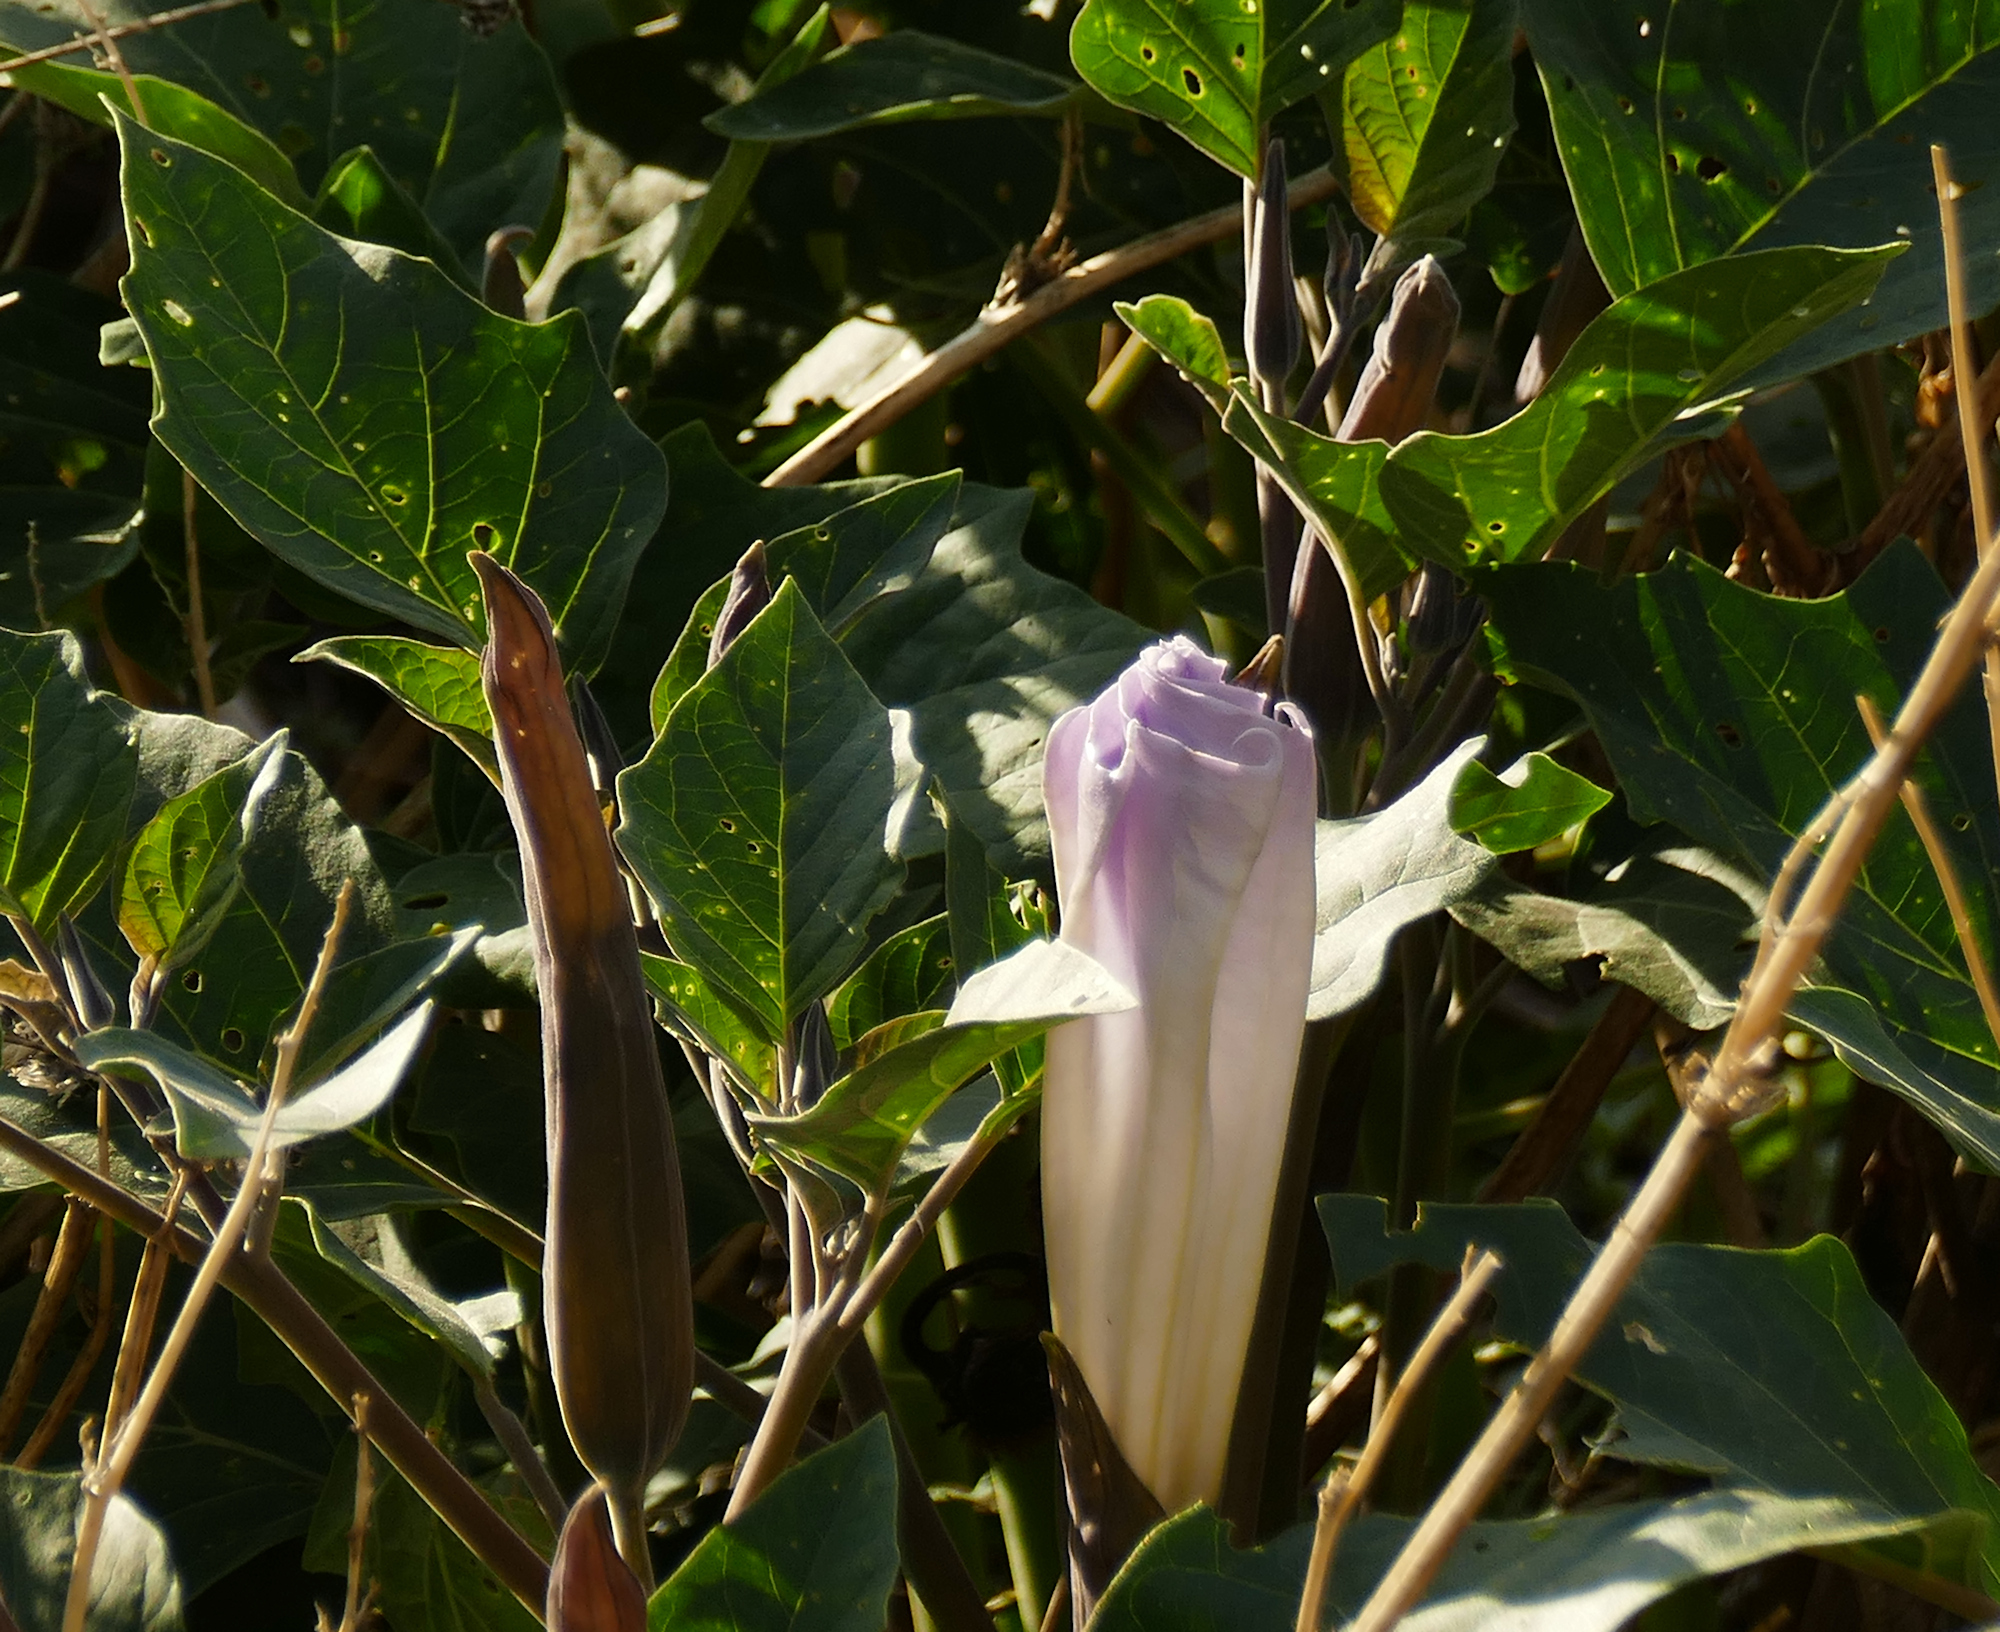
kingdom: Plantae
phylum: Tracheophyta
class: Magnoliopsida
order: Solanales
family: Solanaceae
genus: Datura
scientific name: Datura wrightii
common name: Sacred thorn-apple
